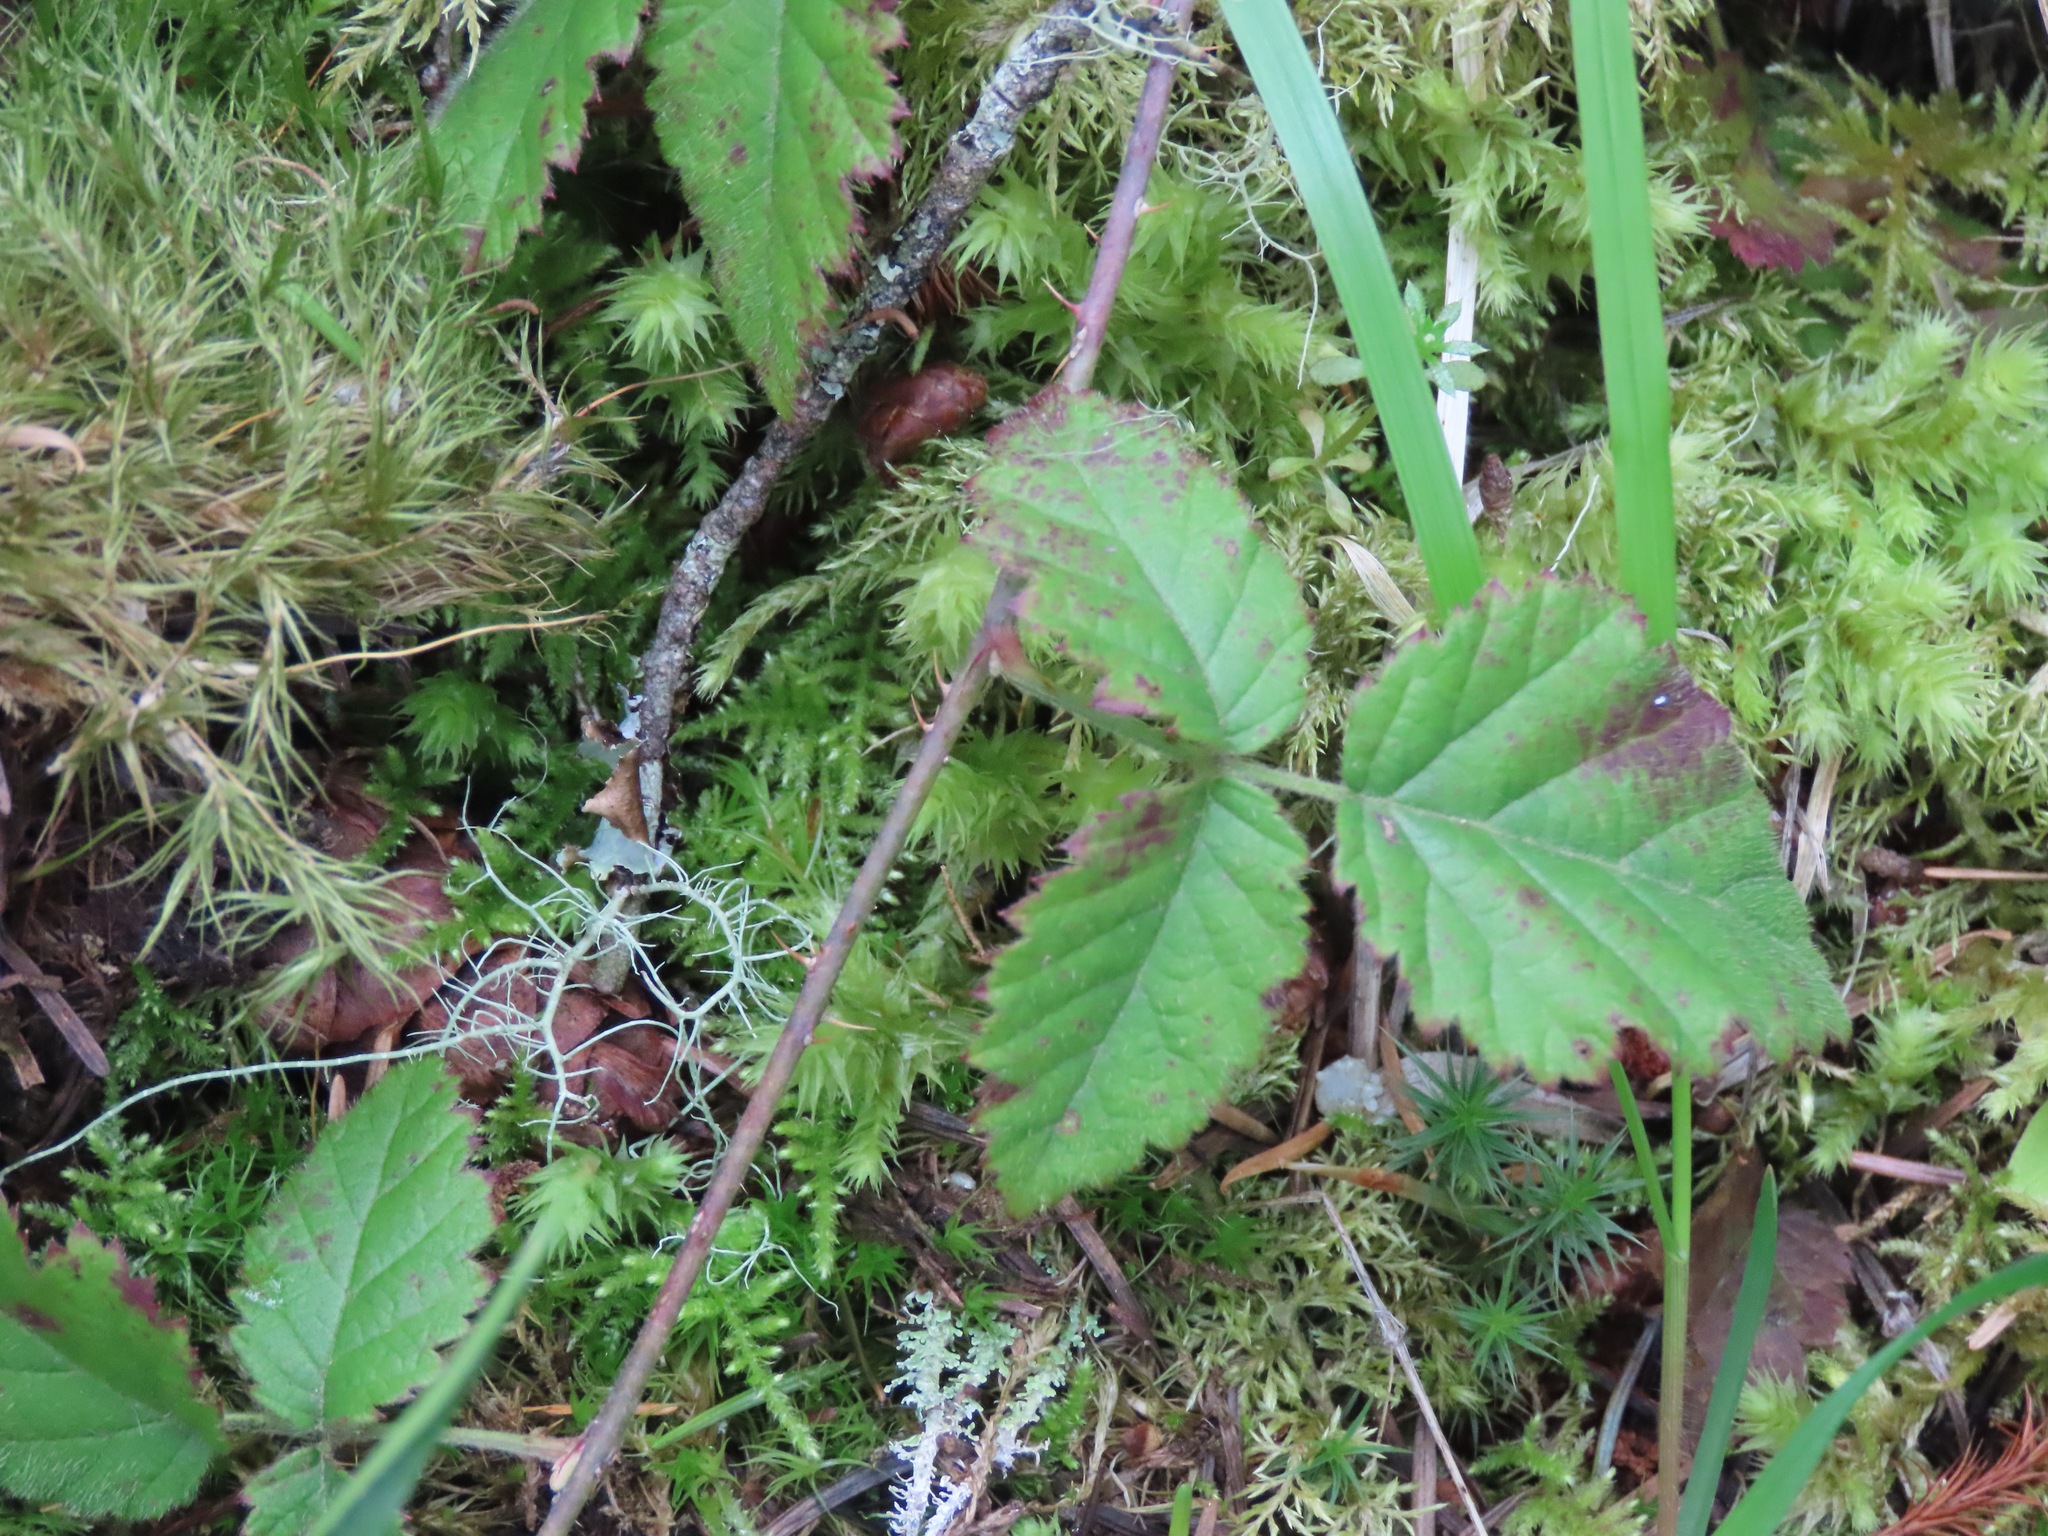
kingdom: Plantae
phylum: Tracheophyta
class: Magnoliopsida
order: Rosales
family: Rosaceae
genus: Rubus
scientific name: Rubus ursinus
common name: Pacific blackberry
